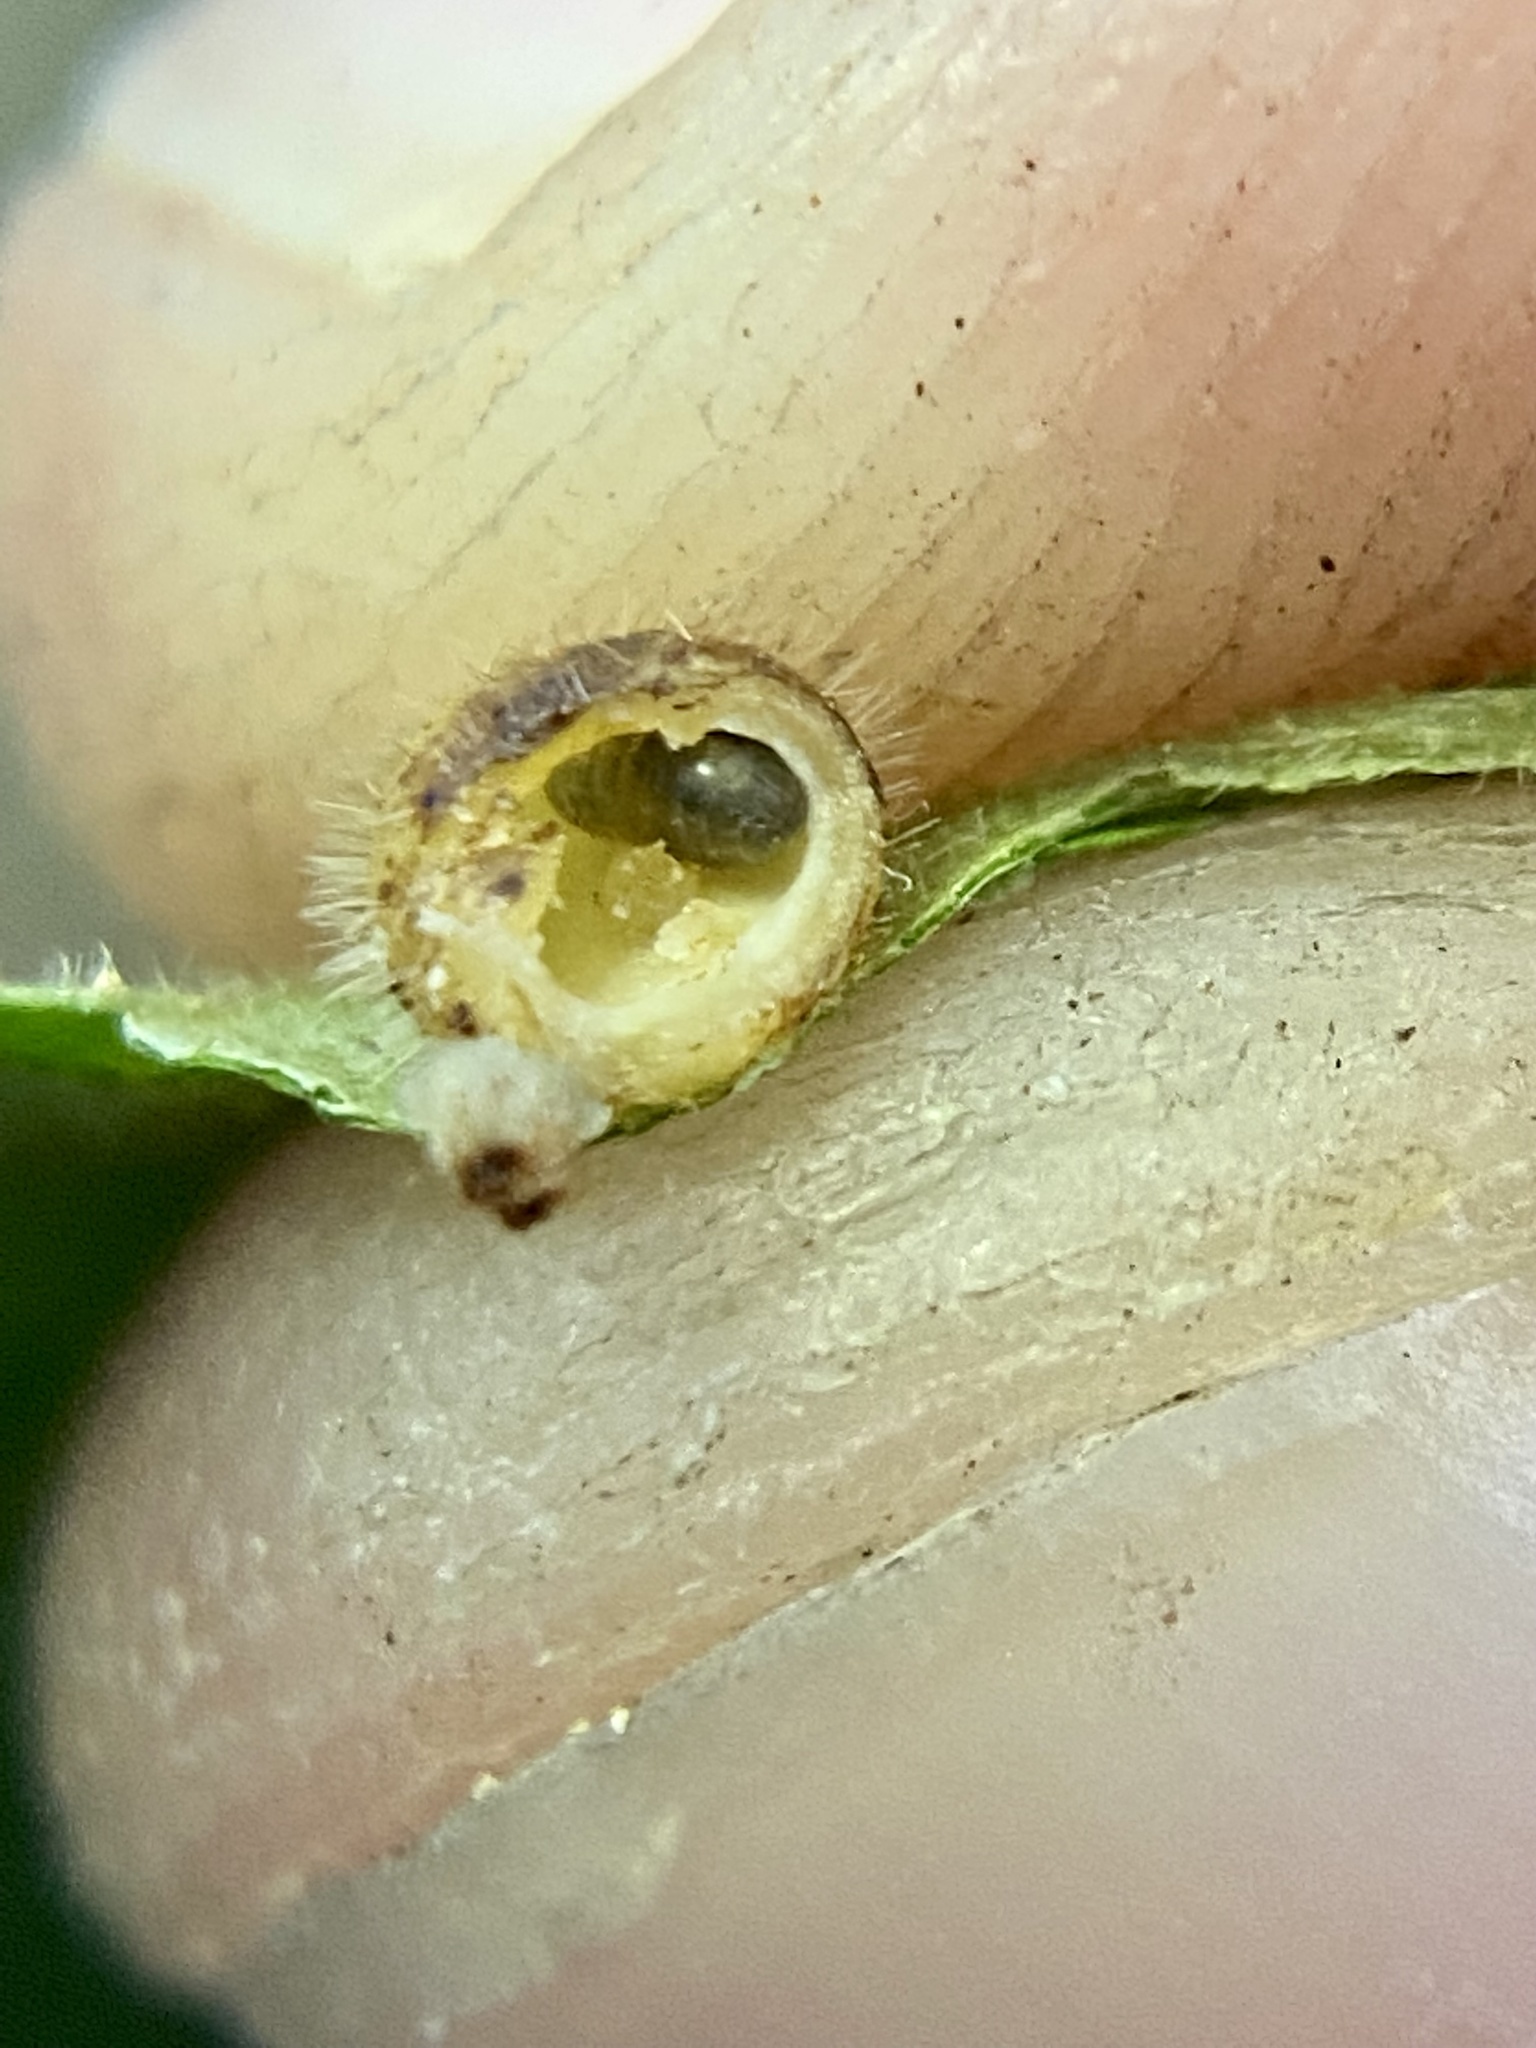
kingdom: Animalia
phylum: Arthropoda
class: Insecta
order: Diptera
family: Cecidomyiidae
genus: Caryomyia
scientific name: Caryomyia thompsoni
